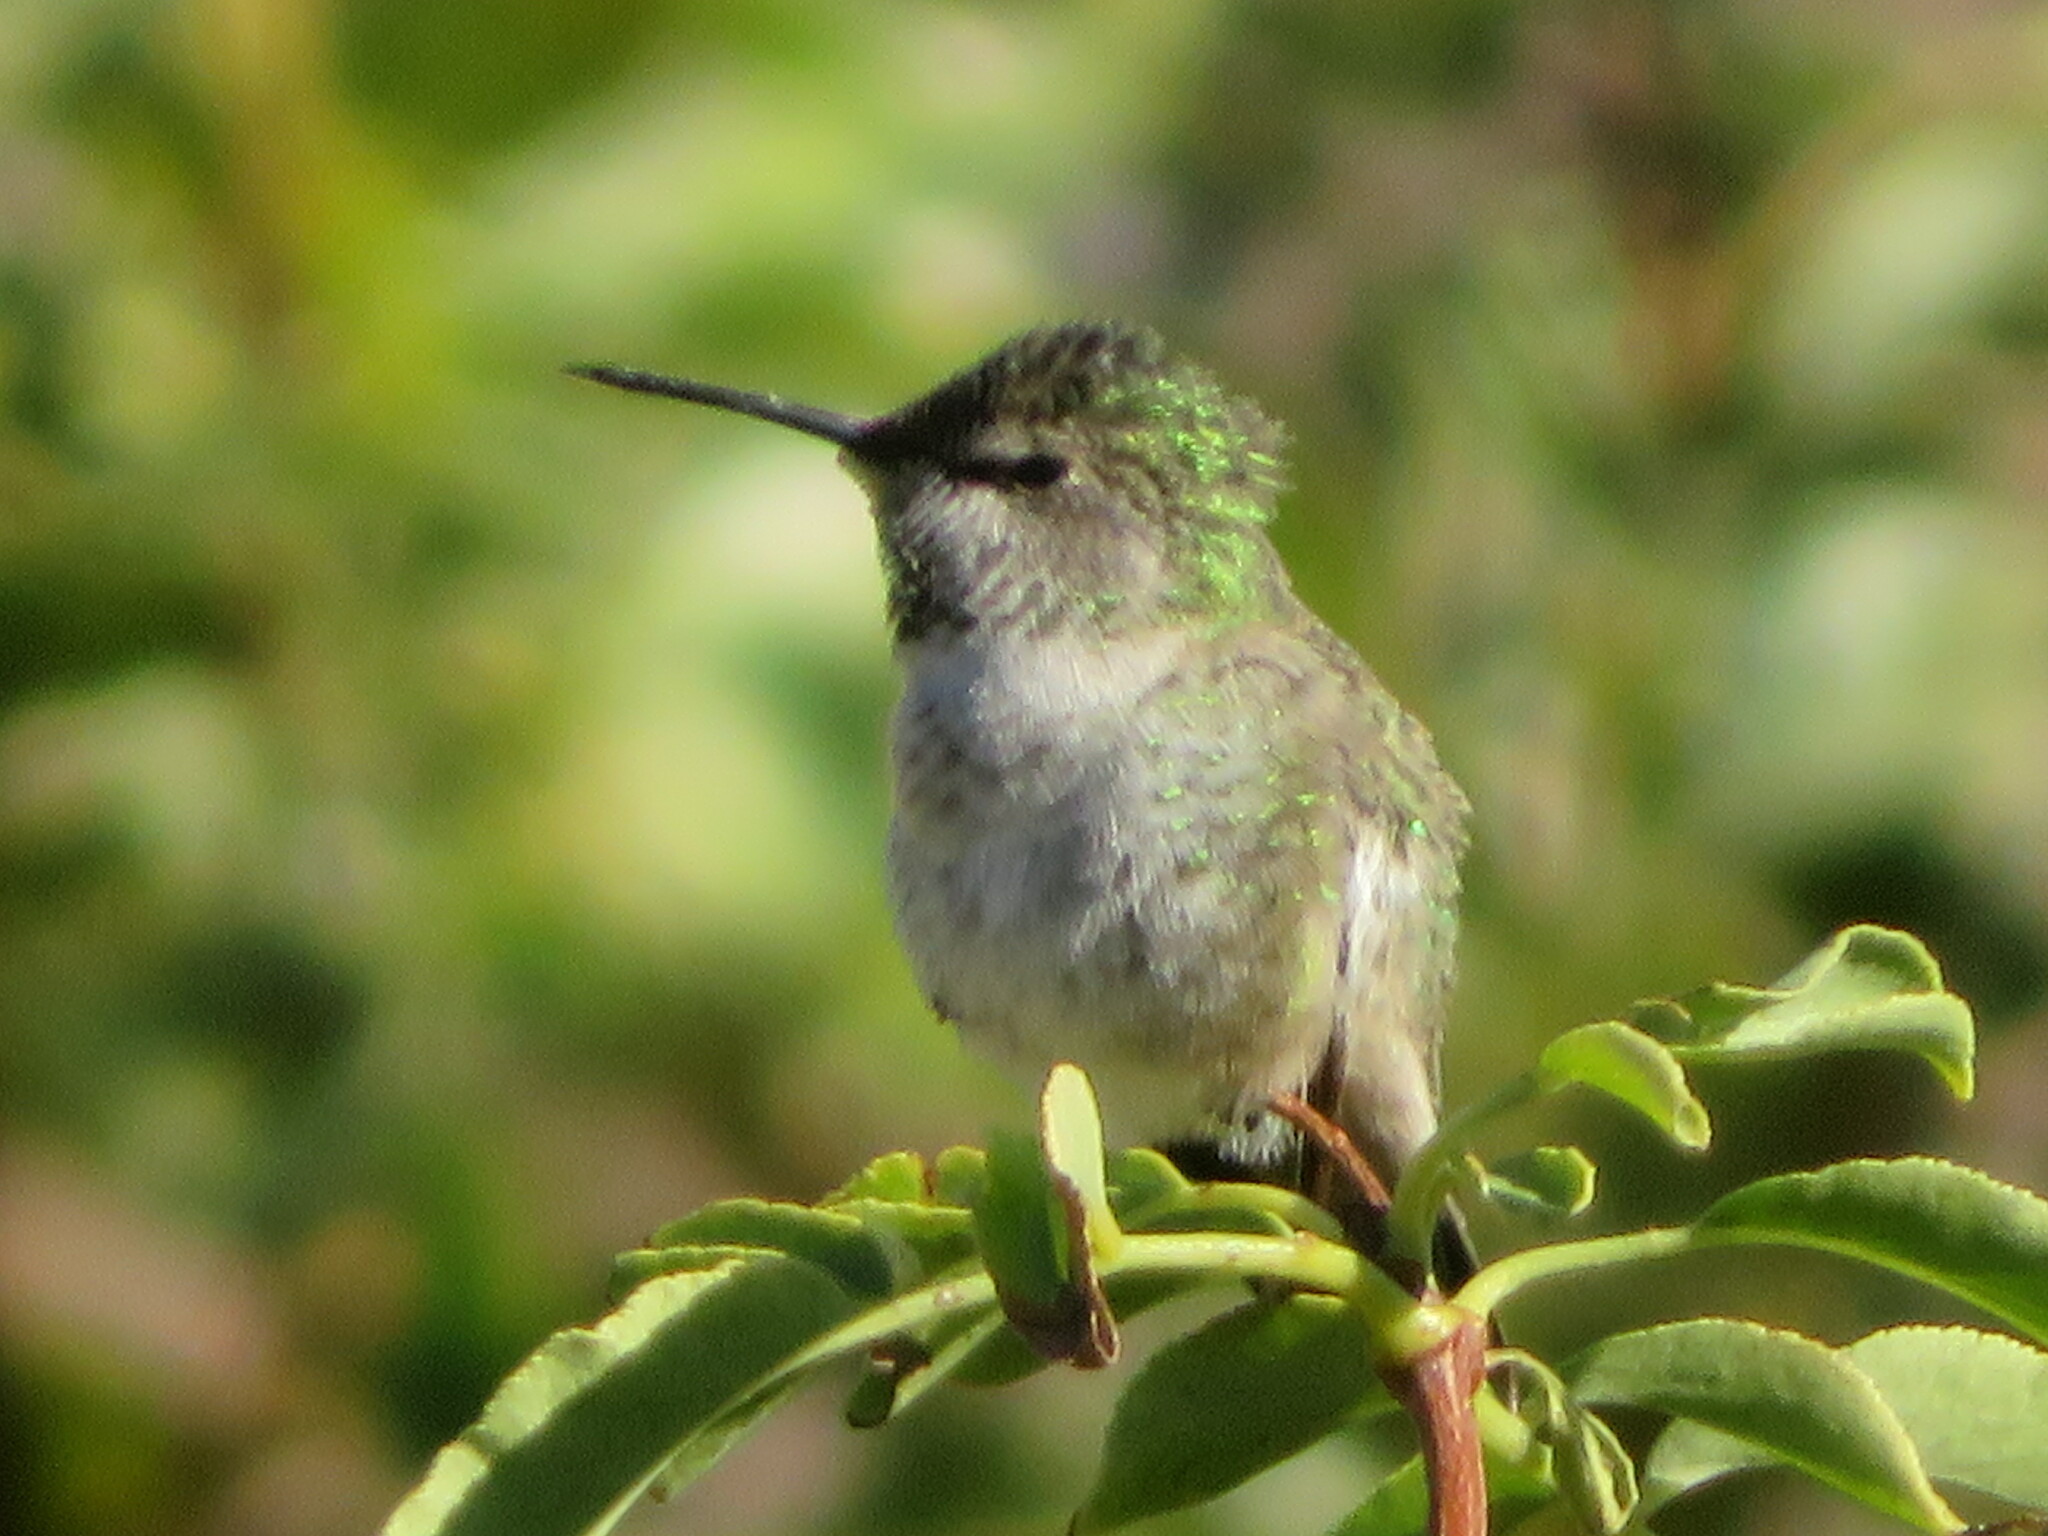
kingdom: Animalia
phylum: Chordata
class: Aves
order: Apodiformes
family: Trochilidae
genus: Calypte
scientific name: Calypte anna
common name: Anna's hummingbird
